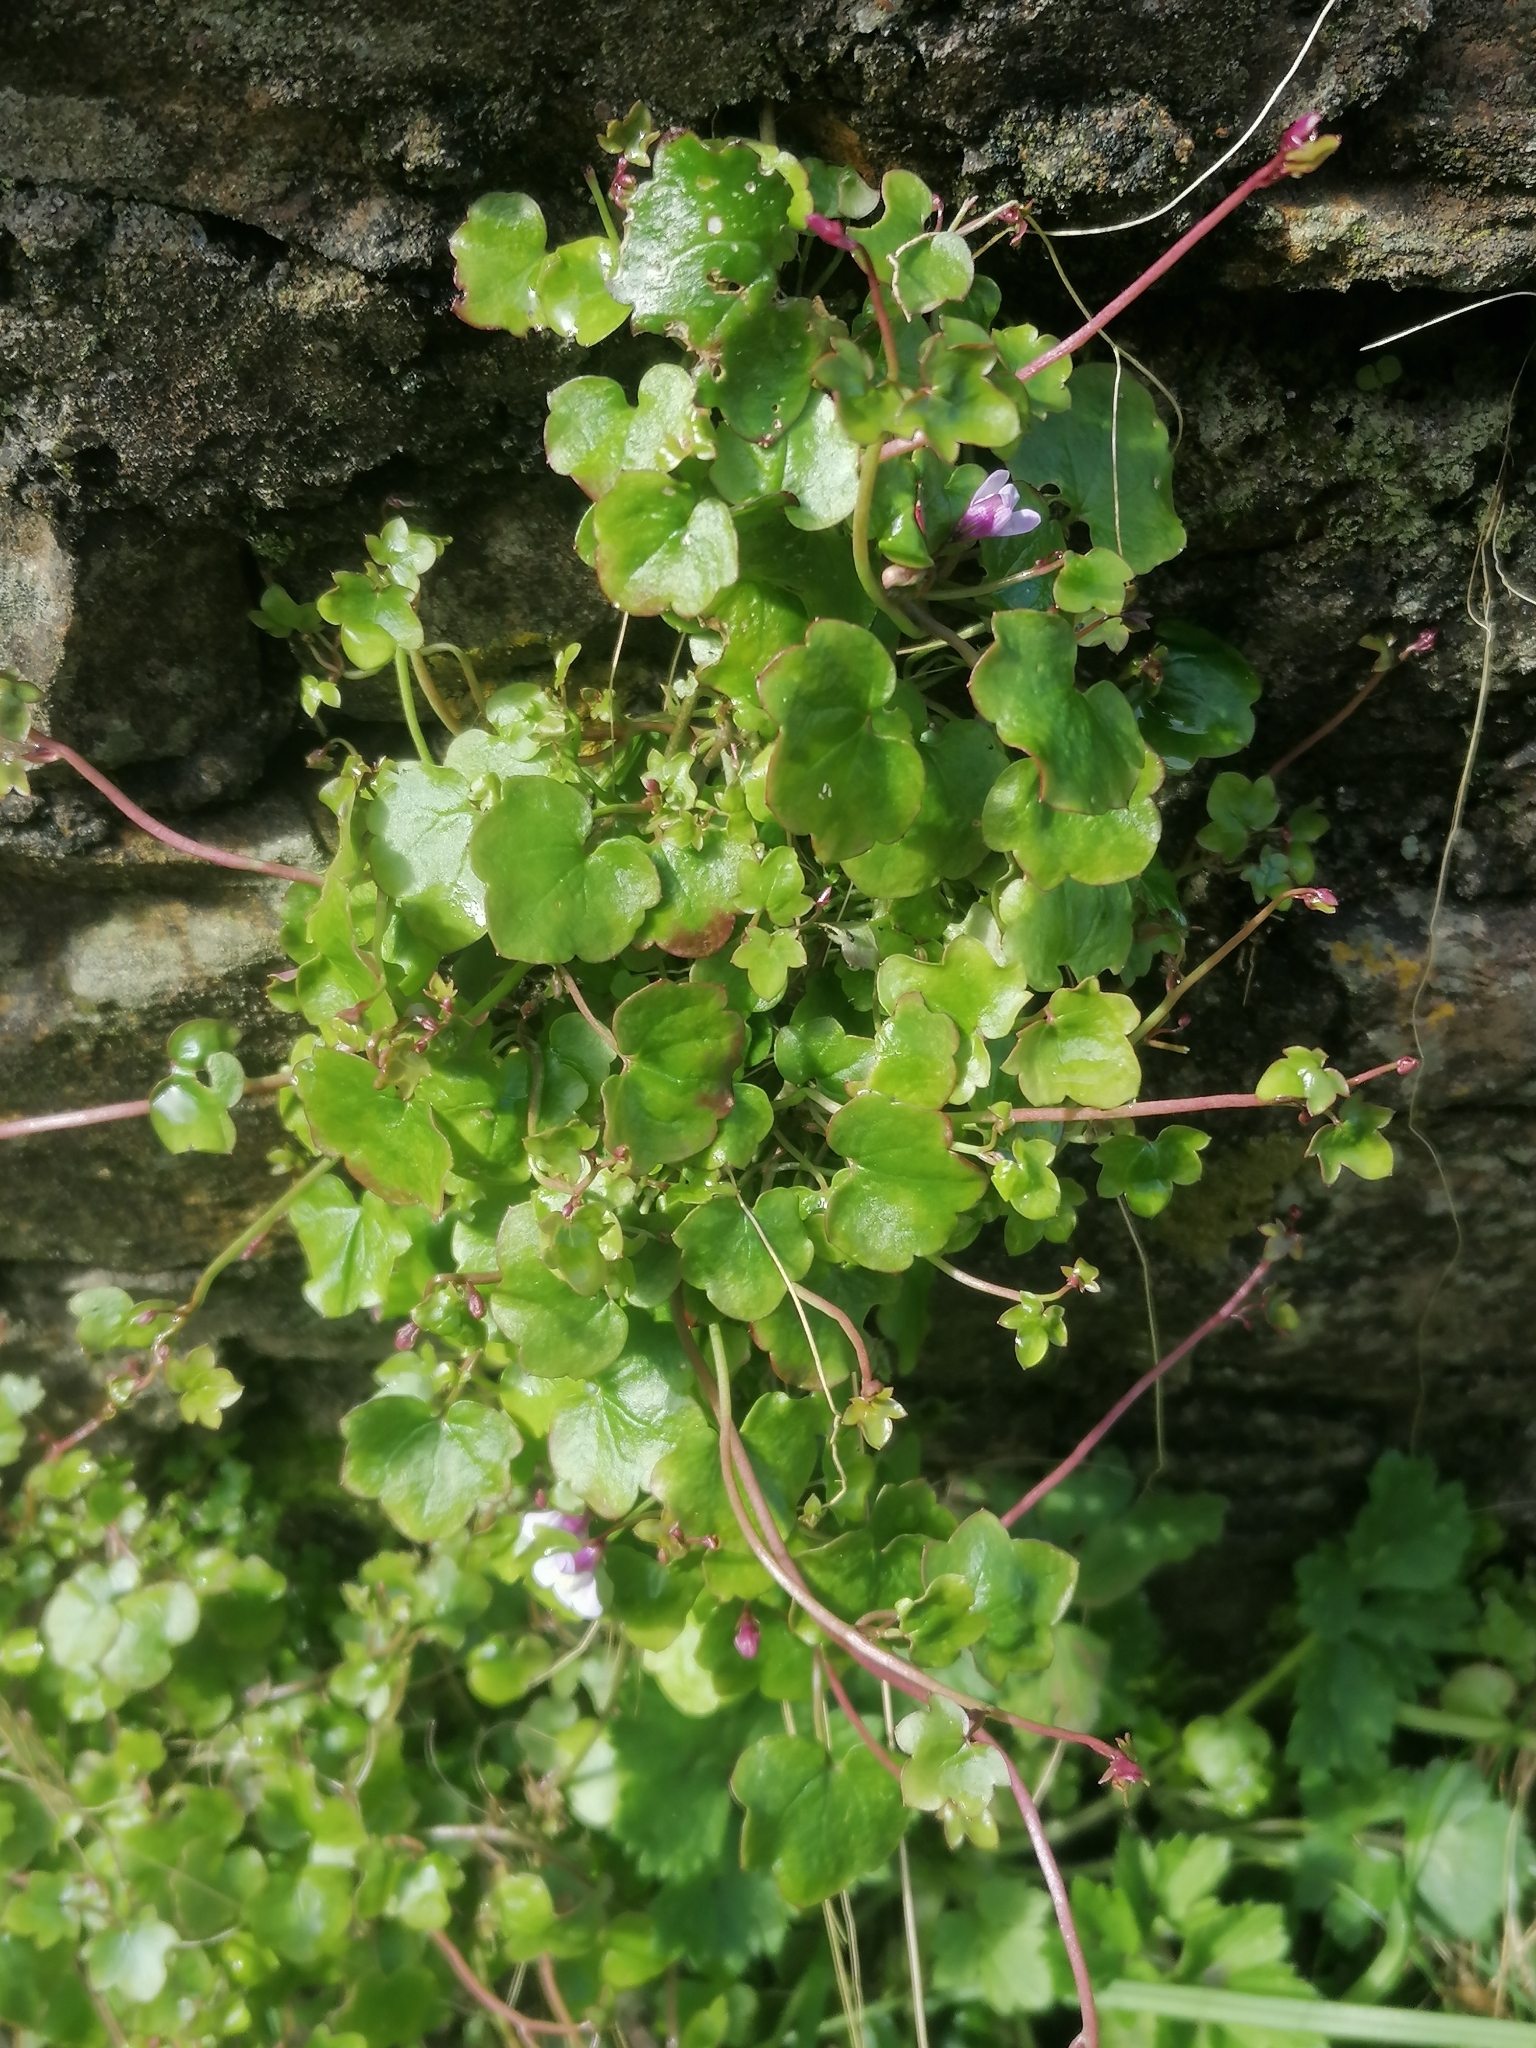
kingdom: Plantae
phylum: Tracheophyta
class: Magnoliopsida
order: Lamiales
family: Plantaginaceae
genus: Cymbalaria
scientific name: Cymbalaria muralis
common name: Ivy-leaved toadflax
